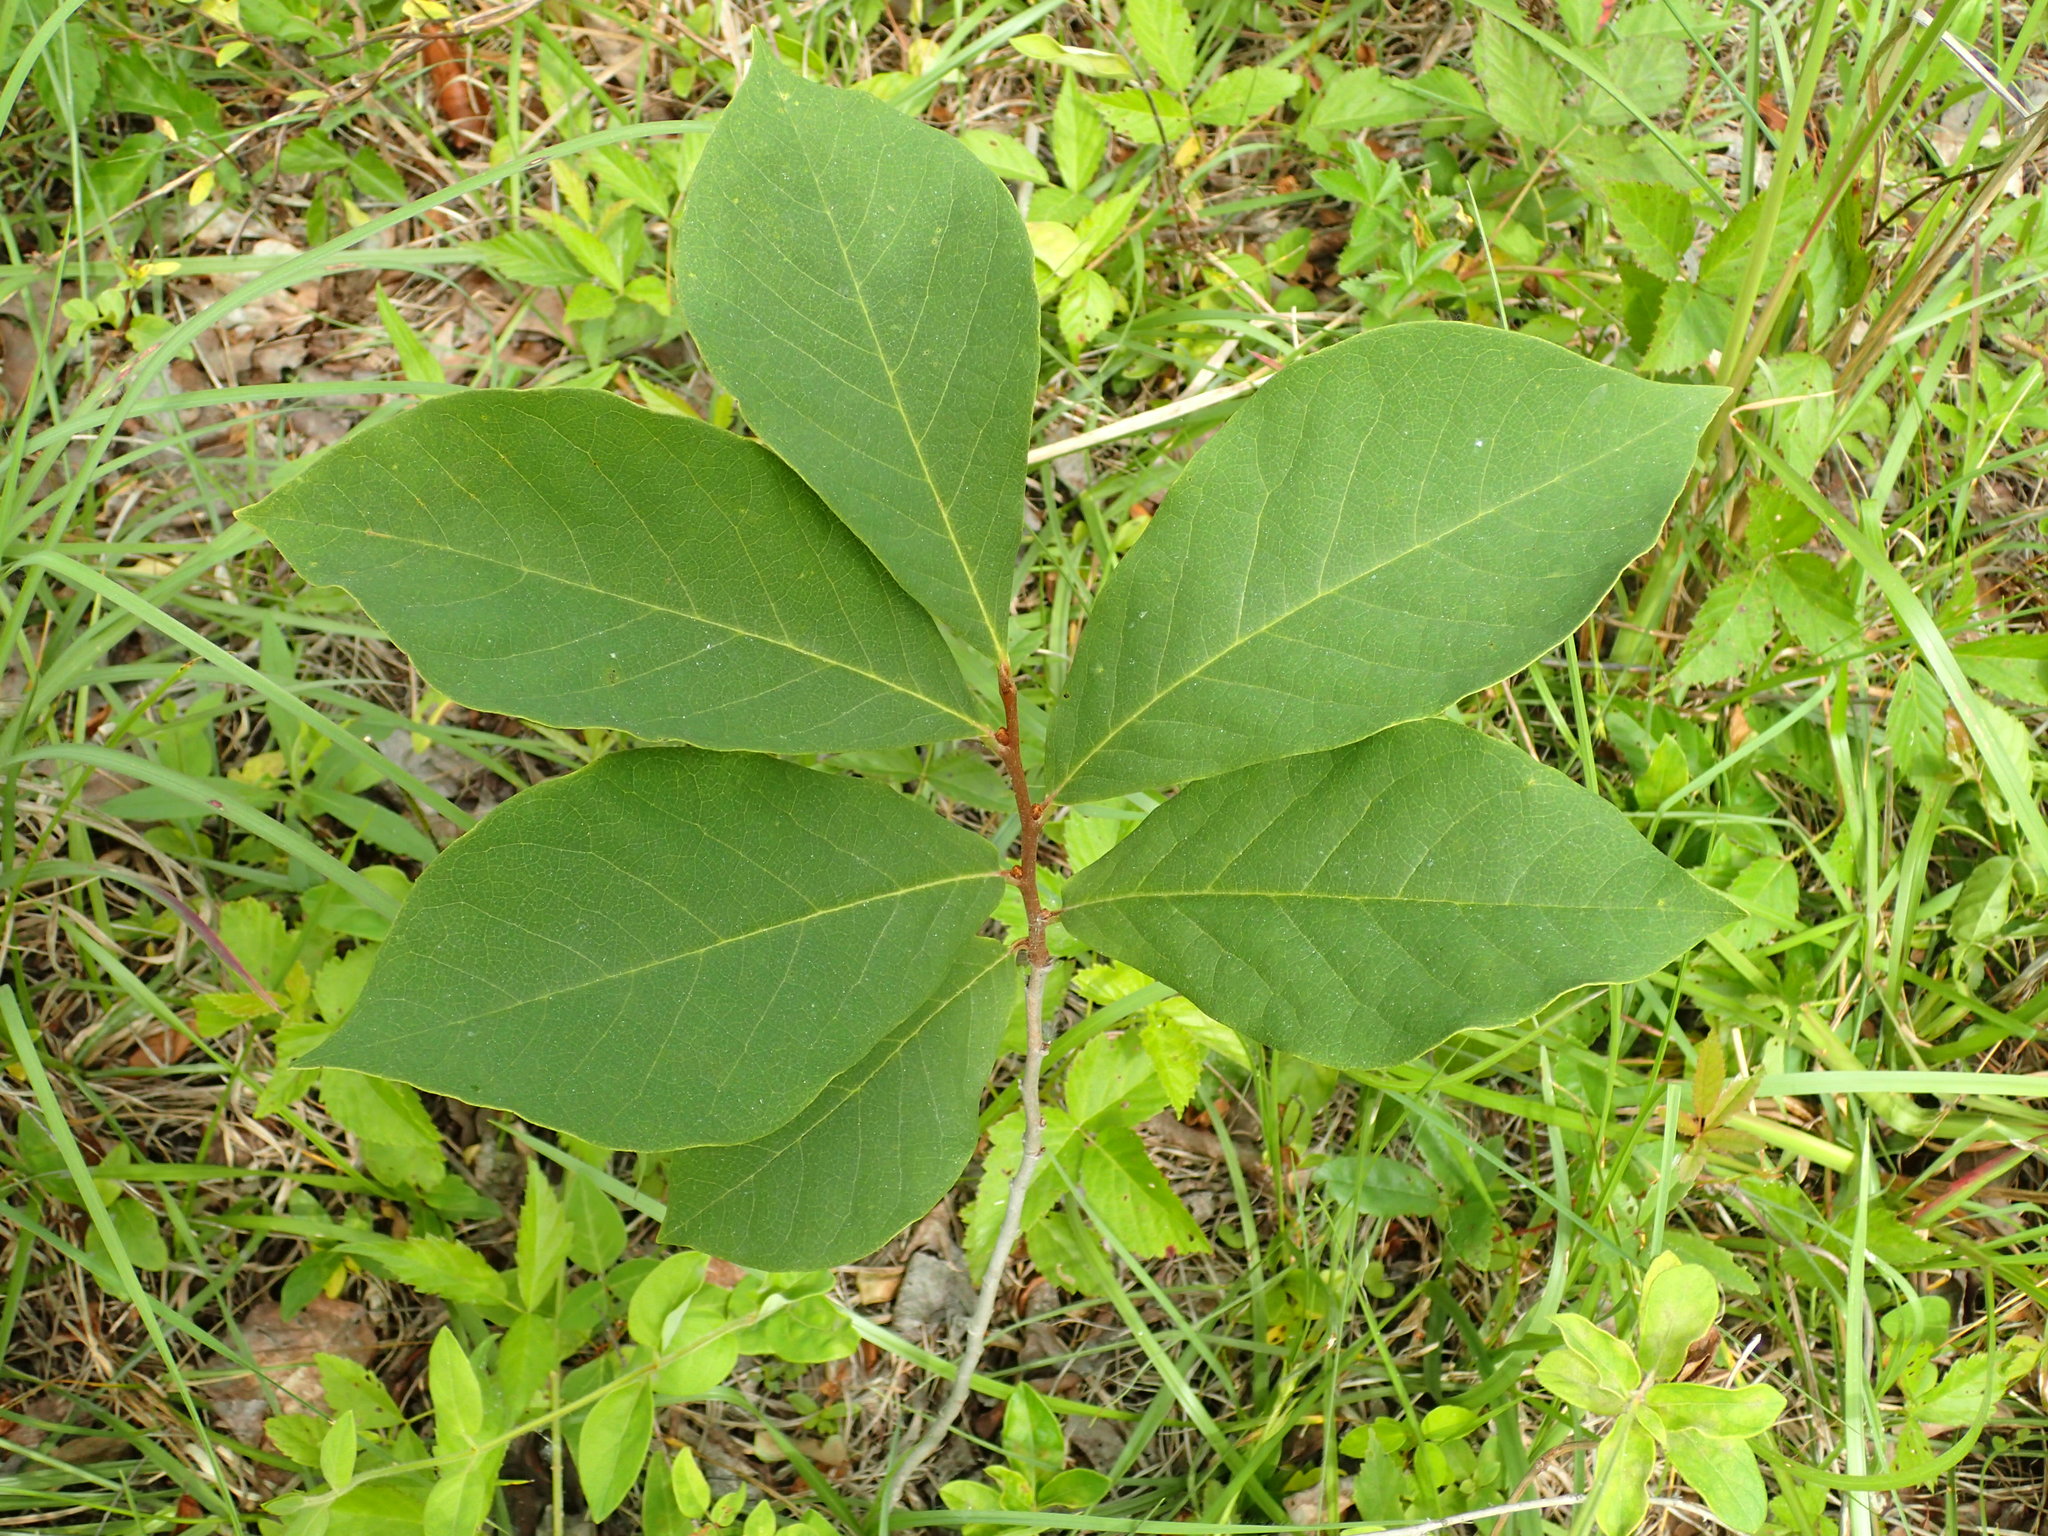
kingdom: Plantae
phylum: Tracheophyta
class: Magnoliopsida
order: Magnoliales
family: Annonaceae
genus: Asimina
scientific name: Asimina parviflora
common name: Dwarf pawpaw
